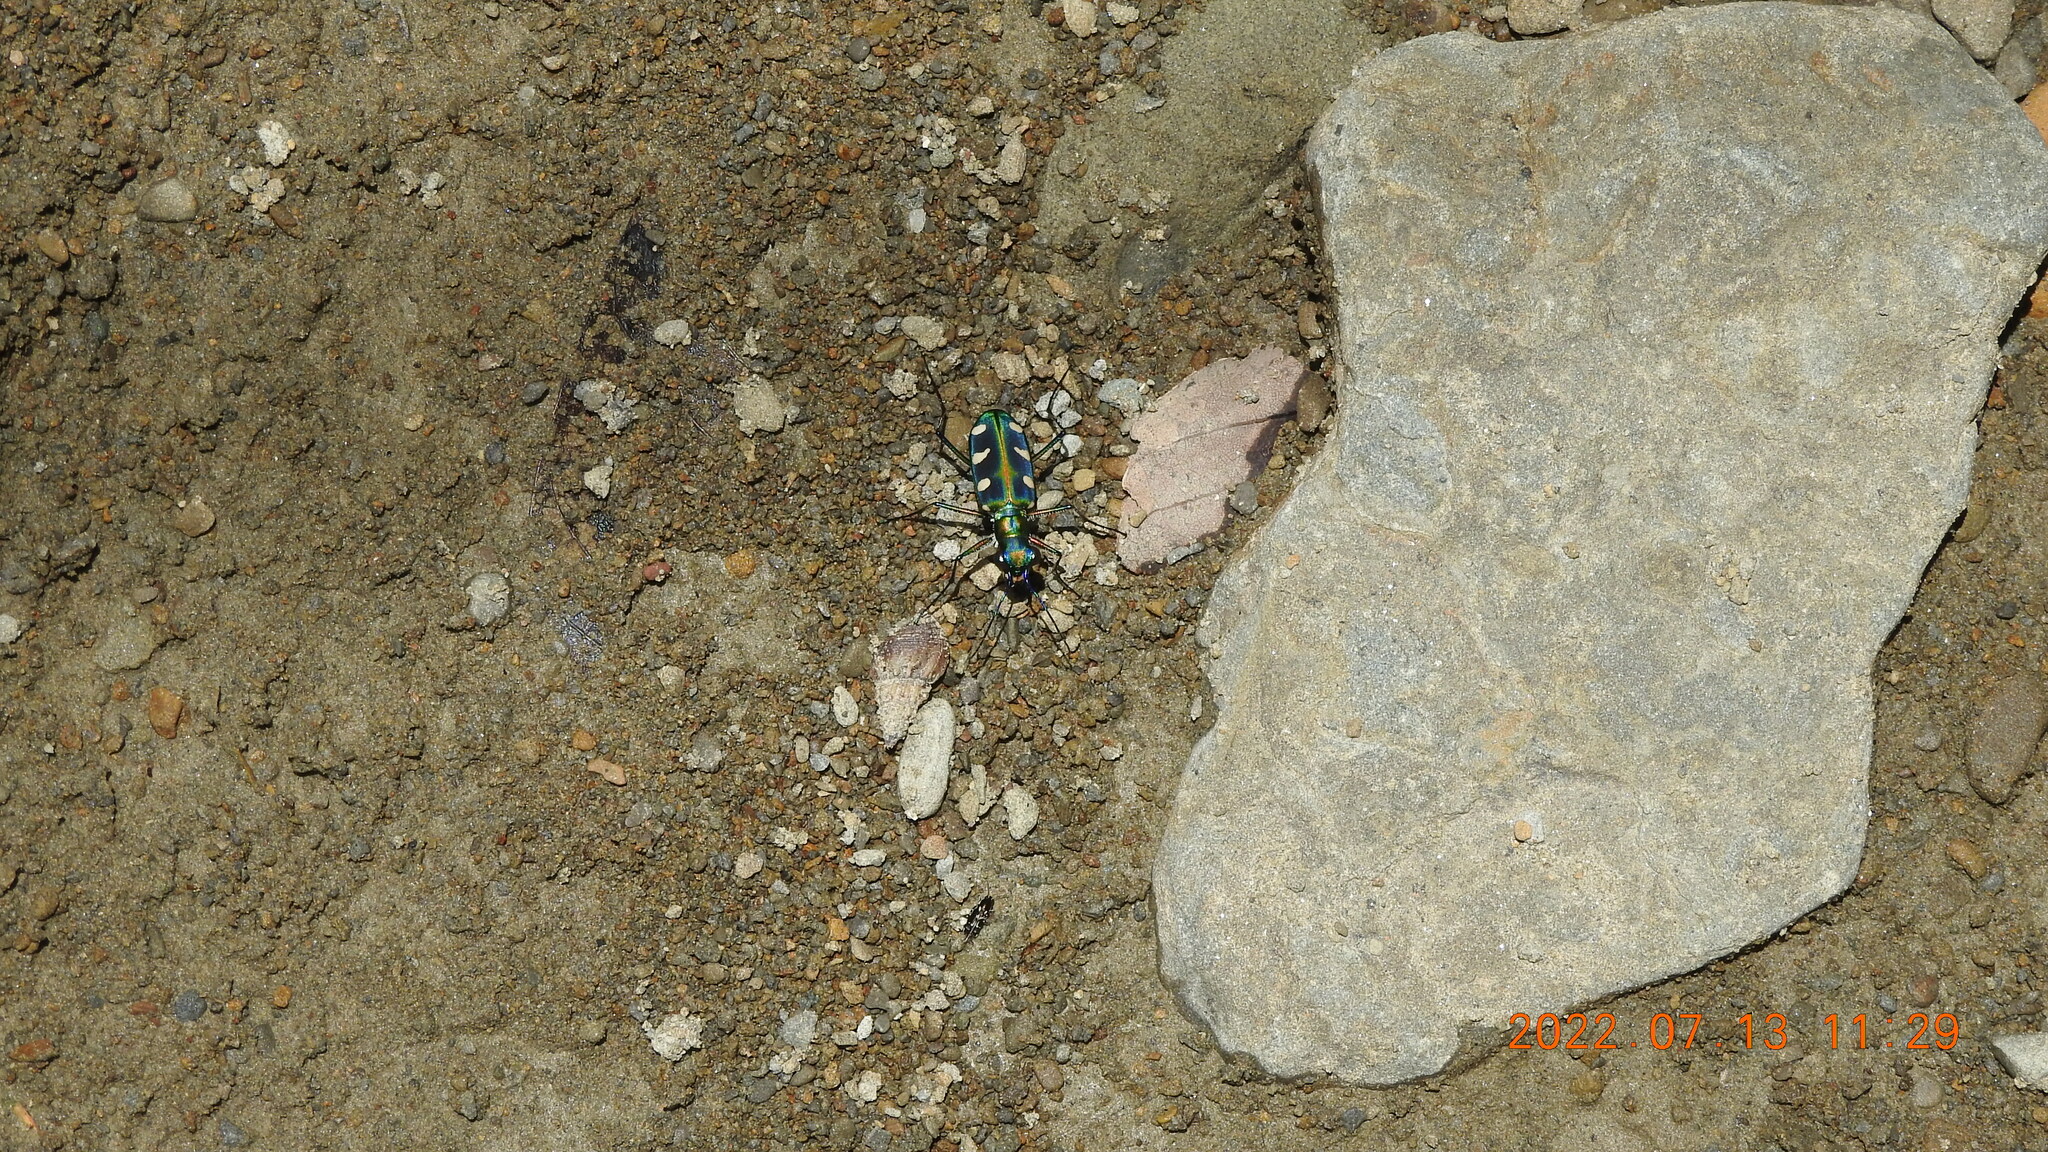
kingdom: Animalia
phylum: Arthropoda
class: Insecta
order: Coleoptera
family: Carabidae
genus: Cicindela
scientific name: Cicindela batesi
